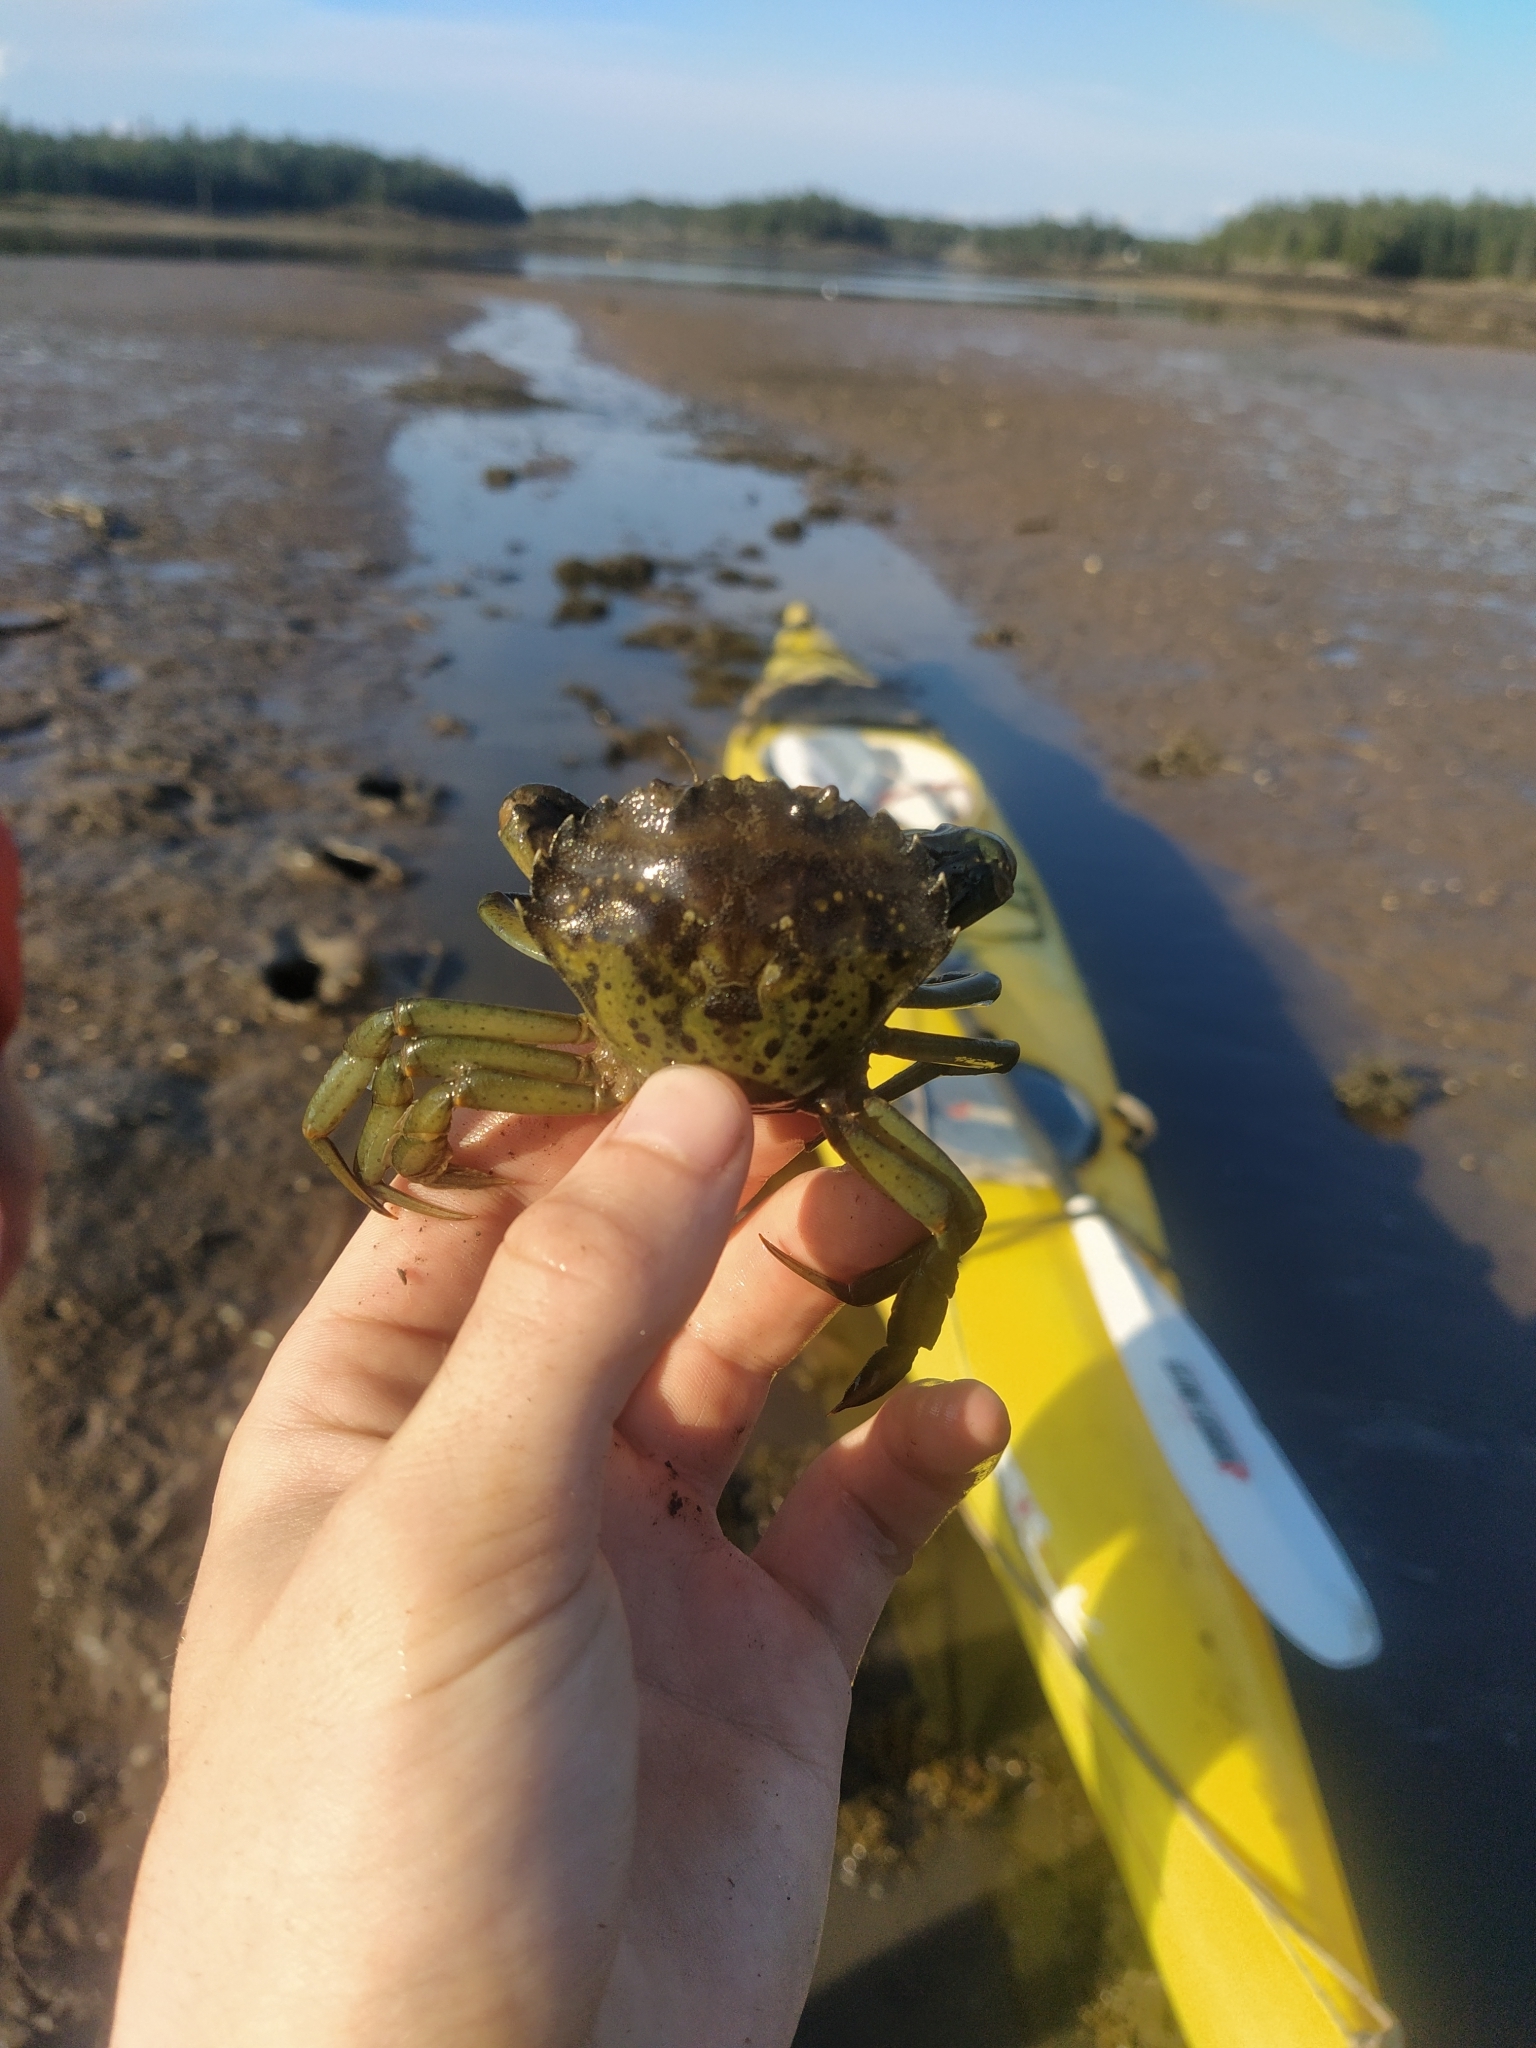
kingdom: Animalia
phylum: Arthropoda
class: Malacostraca
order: Decapoda
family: Carcinidae
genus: Carcinus
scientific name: Carcinus maenas
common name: European green crab
